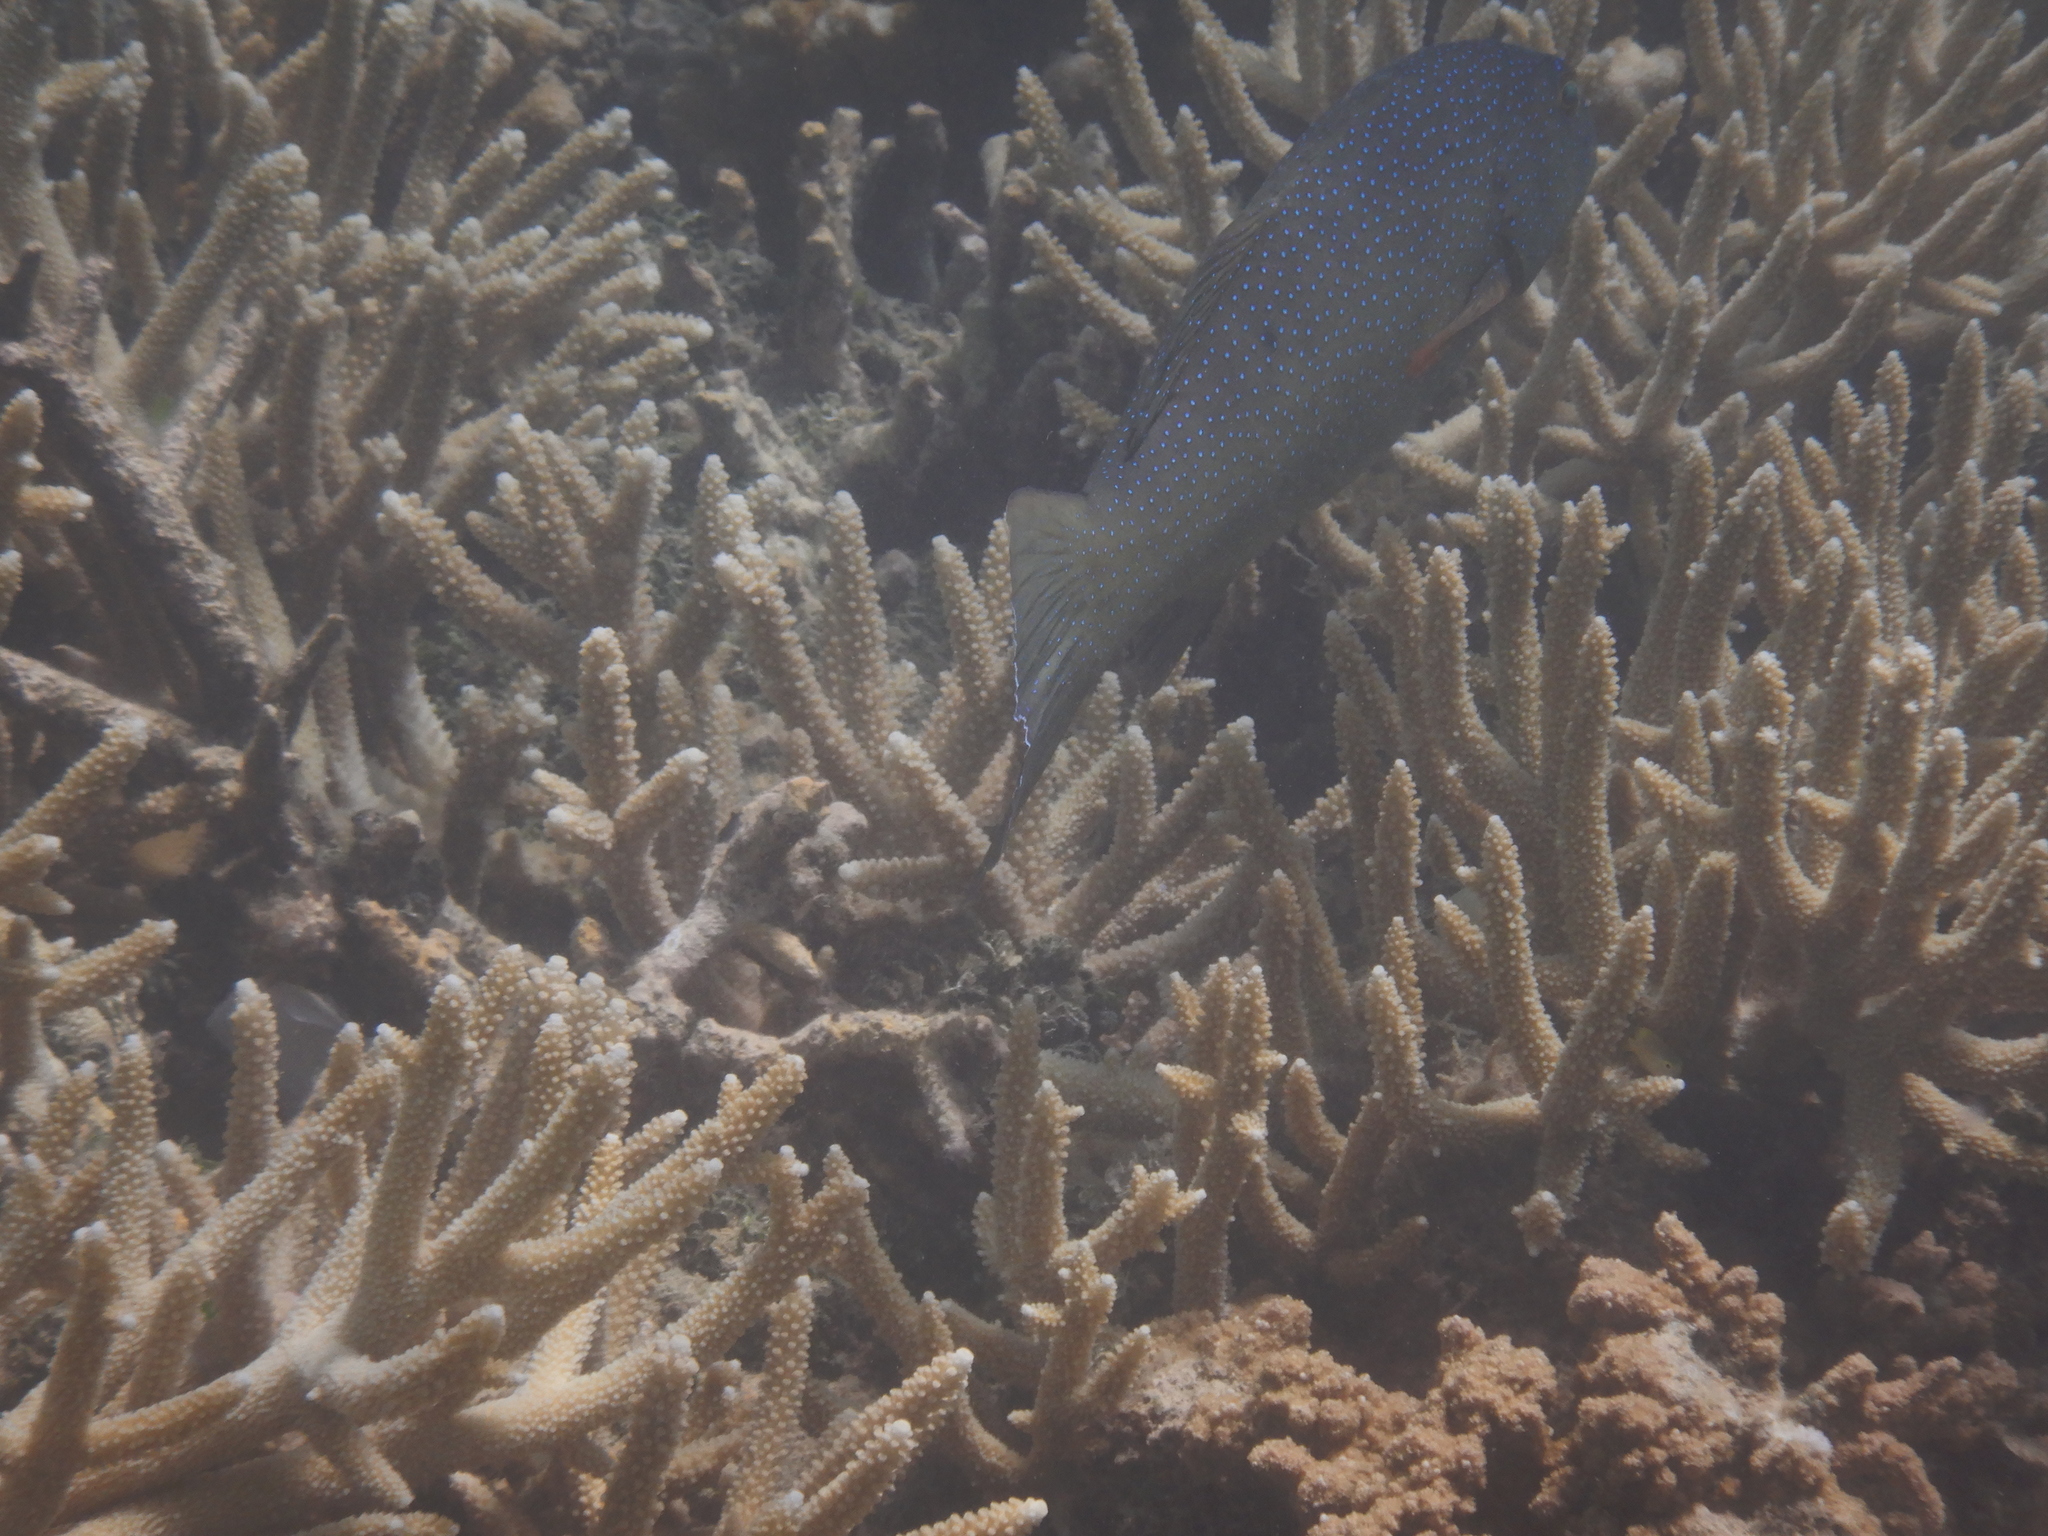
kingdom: Animalia
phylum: Chordata
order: Perciformes
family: Serranidae
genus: Plectropomus
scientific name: Plectropomus leopardus
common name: Coral trout
